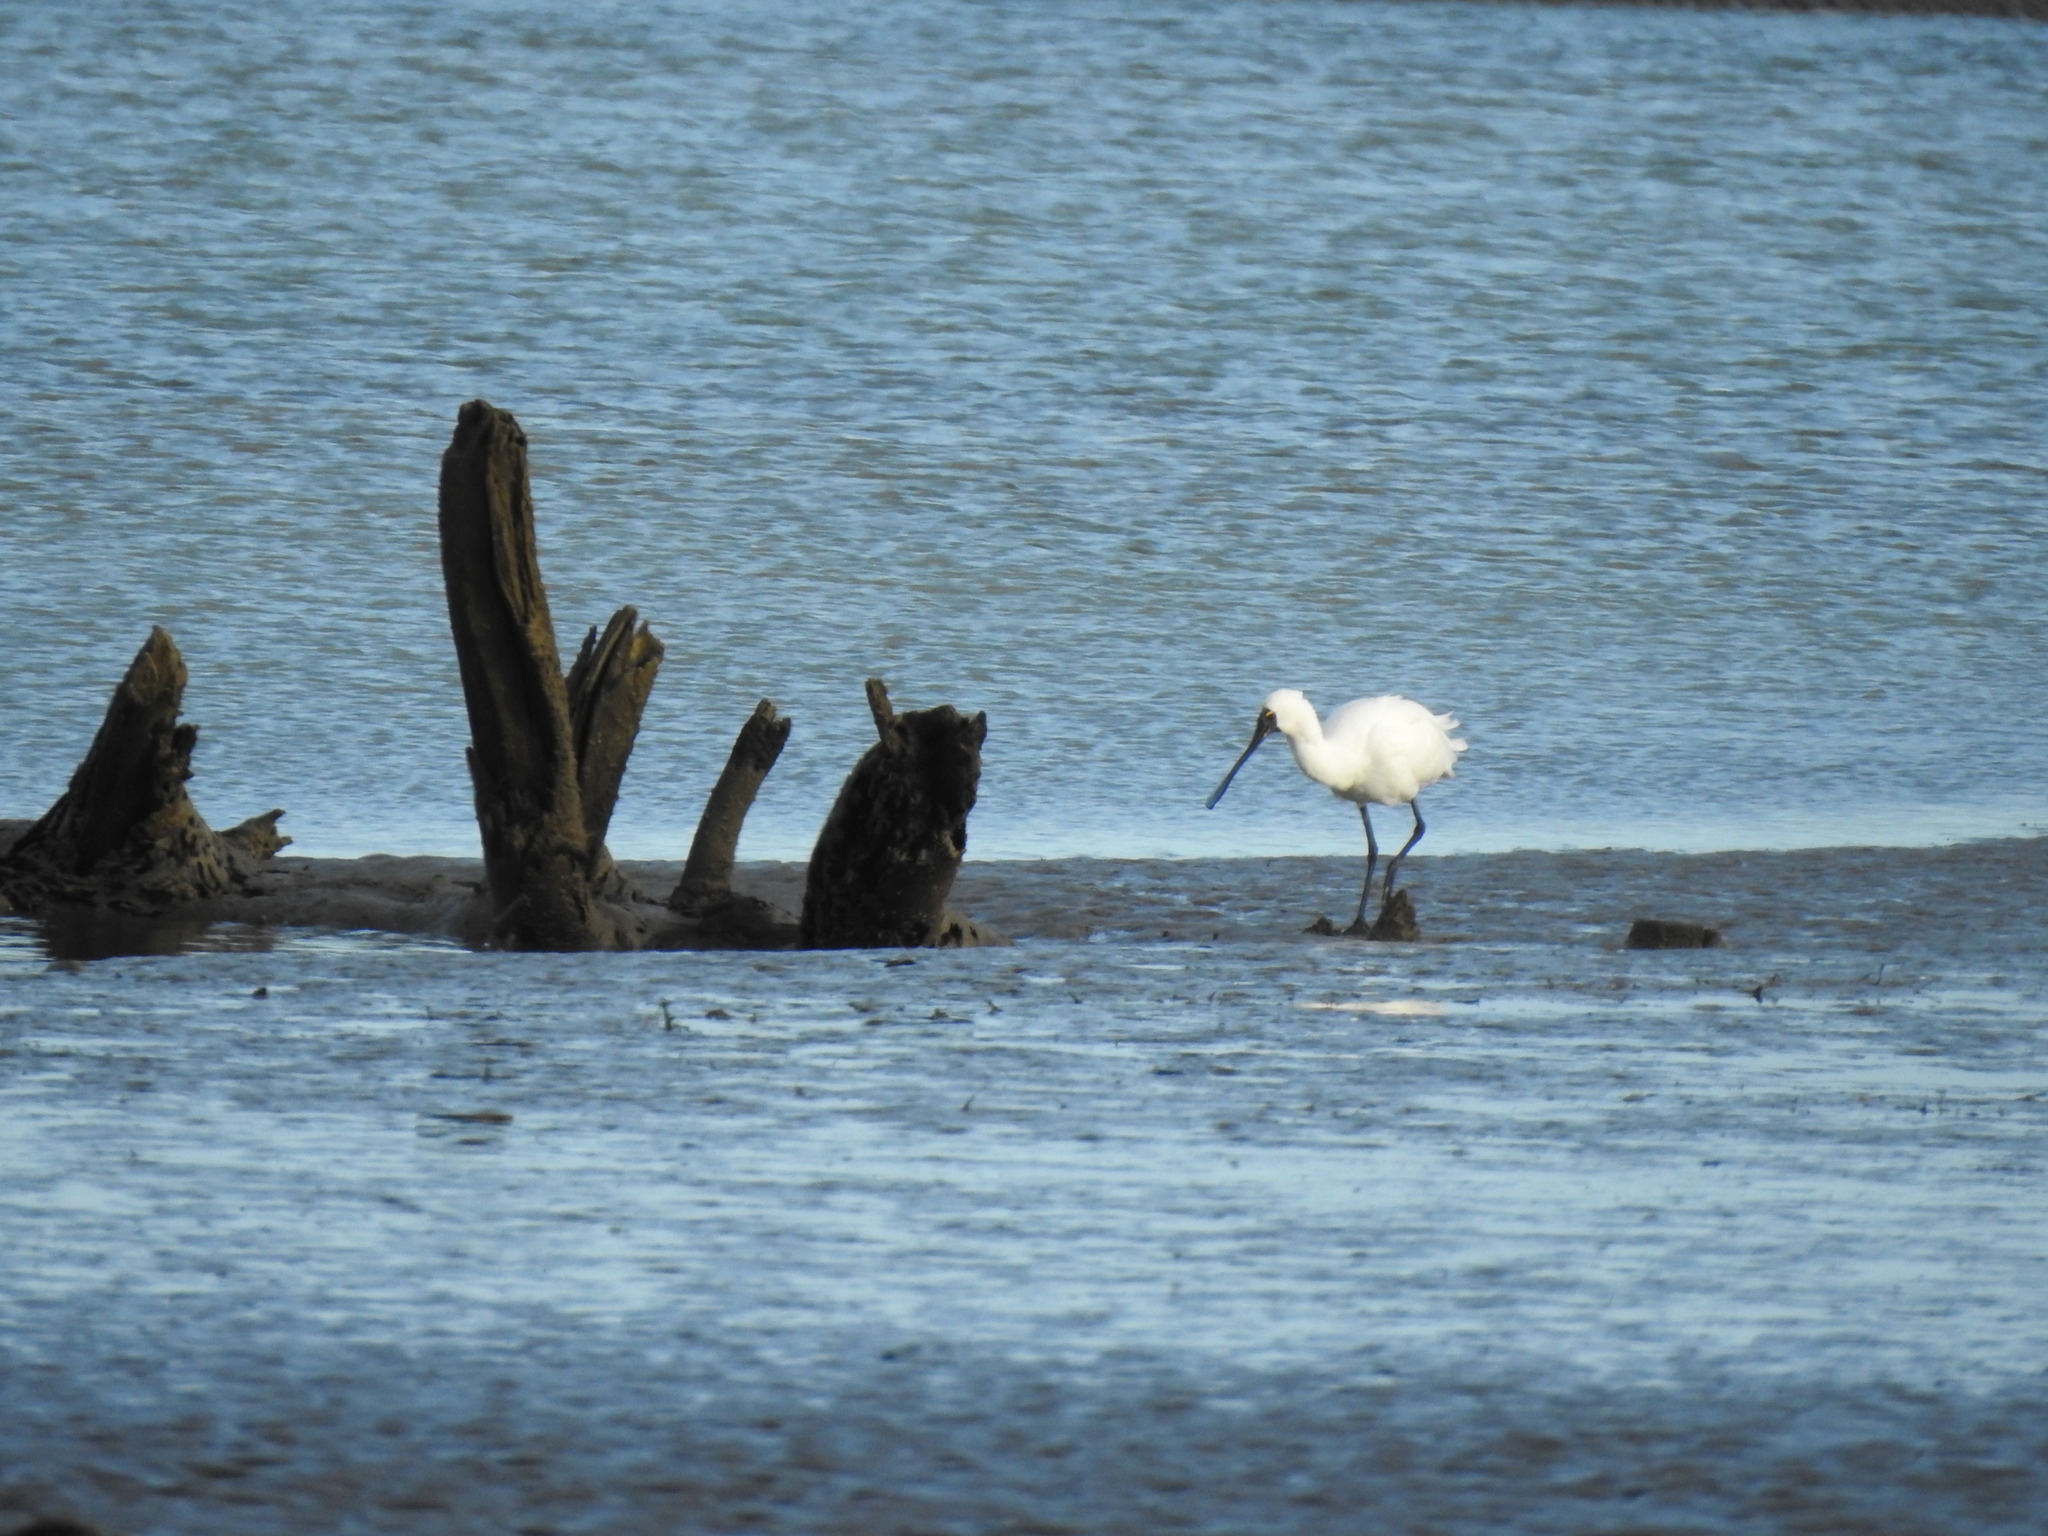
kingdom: Animalia
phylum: Chordata
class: Aves
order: Pelecaniformes
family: Threskiornithidae
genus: Platalea
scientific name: Platalea regia
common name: Royal spoonbill
